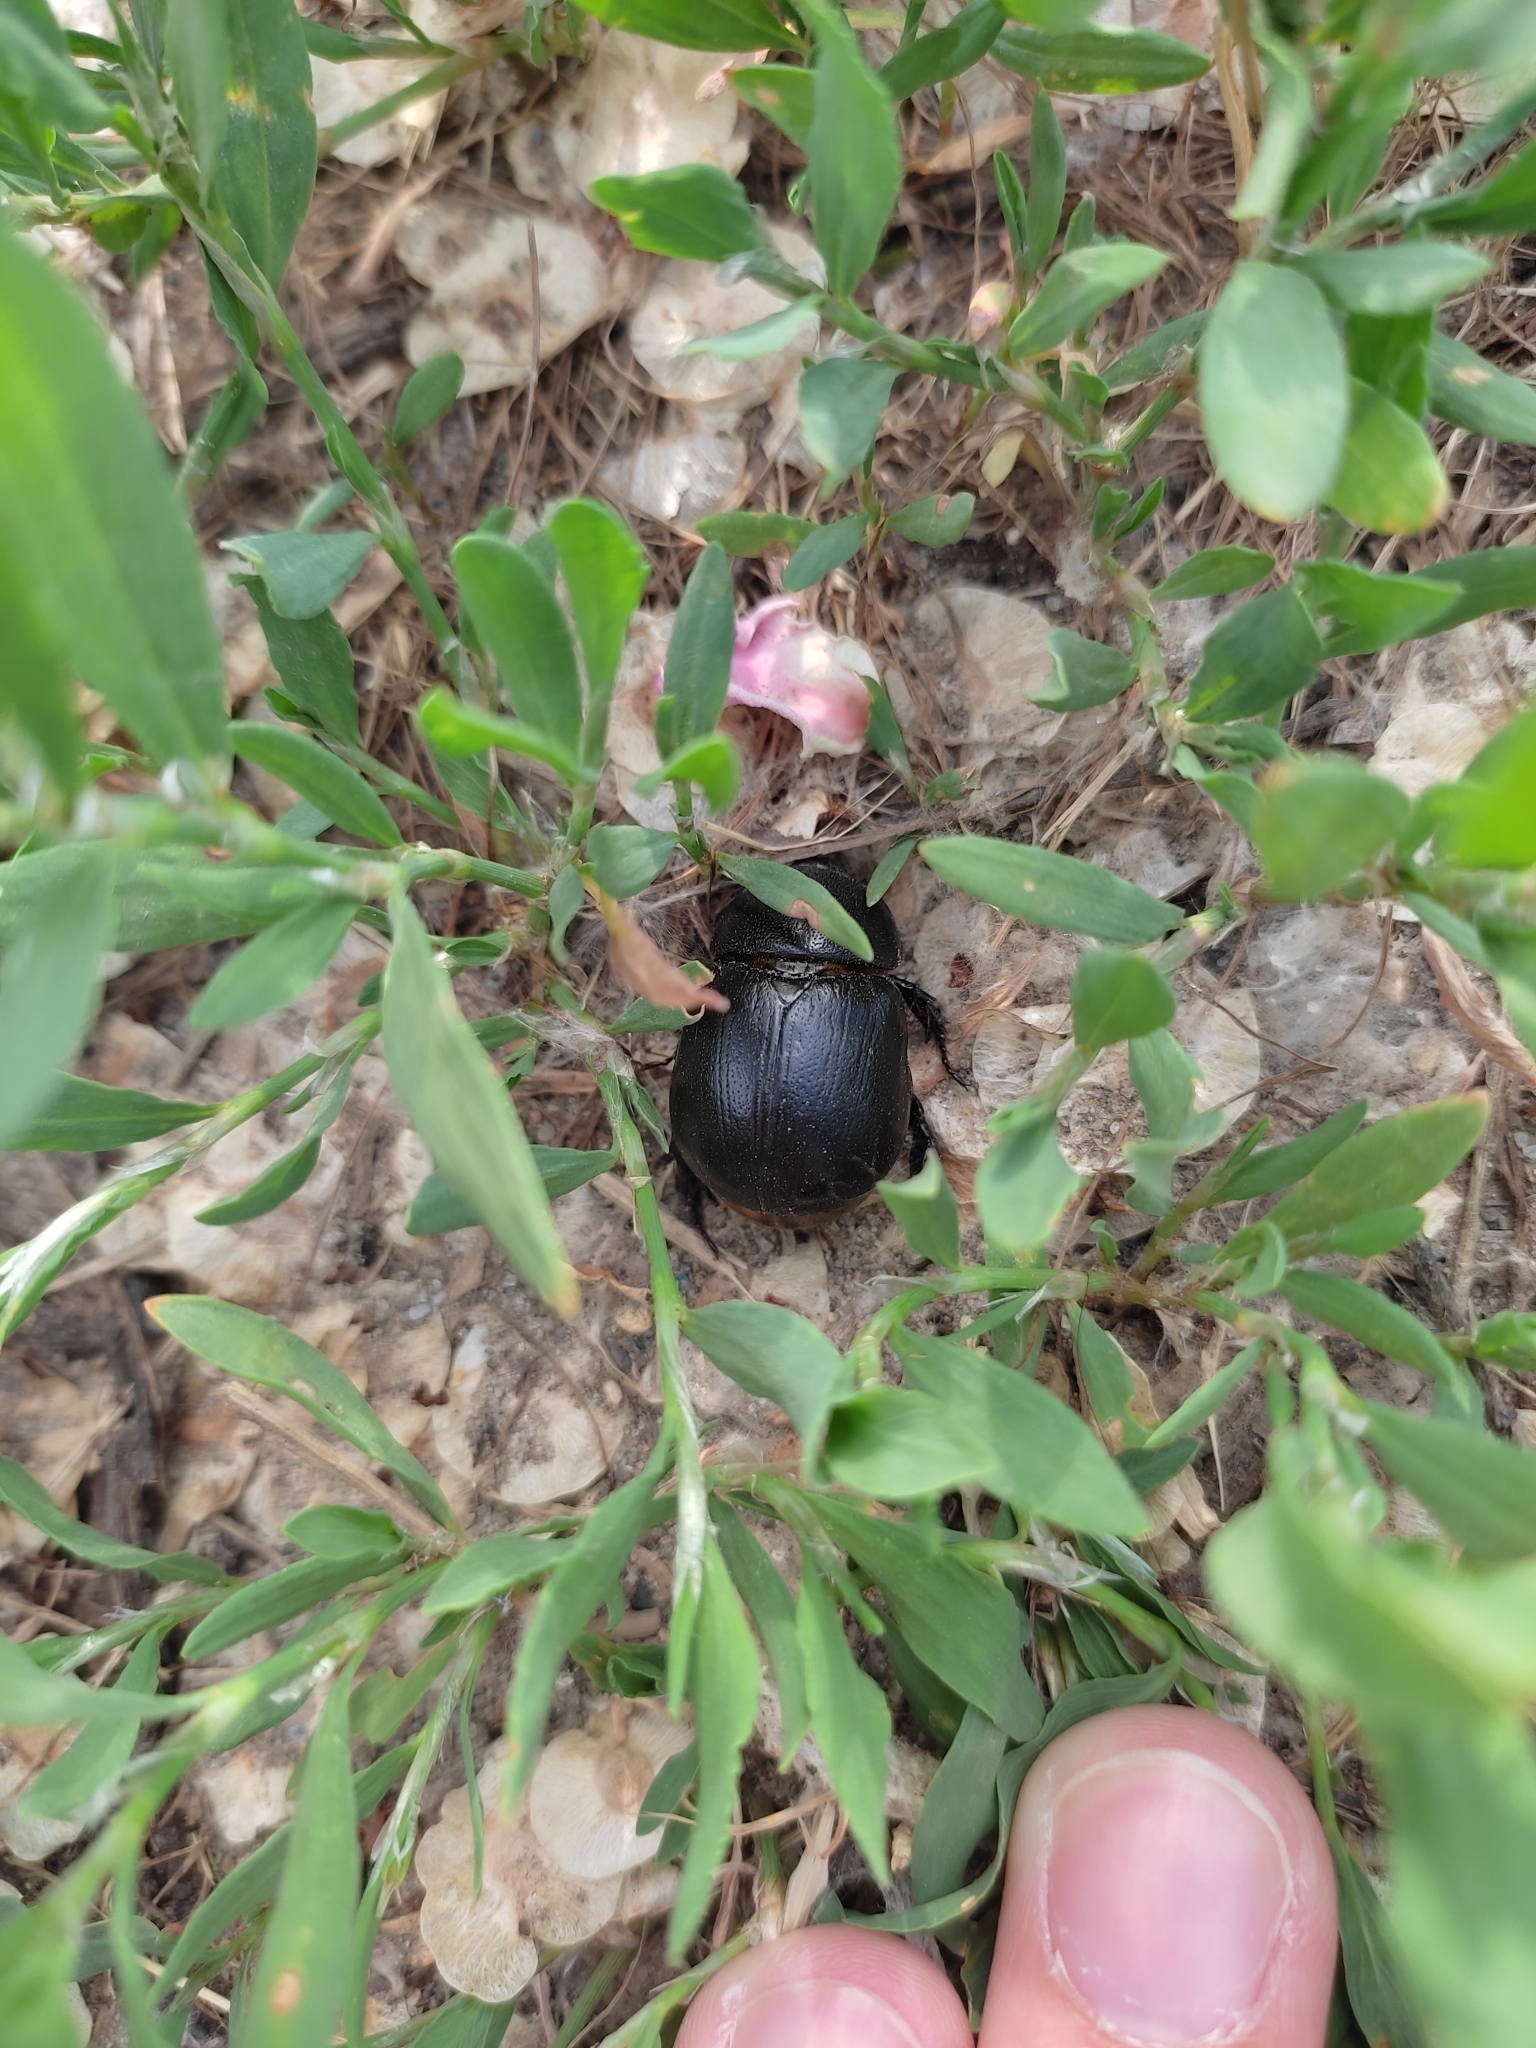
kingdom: Animalia
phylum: Arthropoda
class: Insecta
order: Coleoptera
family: Scarabaeidae
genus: Pentodon
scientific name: Pentodon idiota
